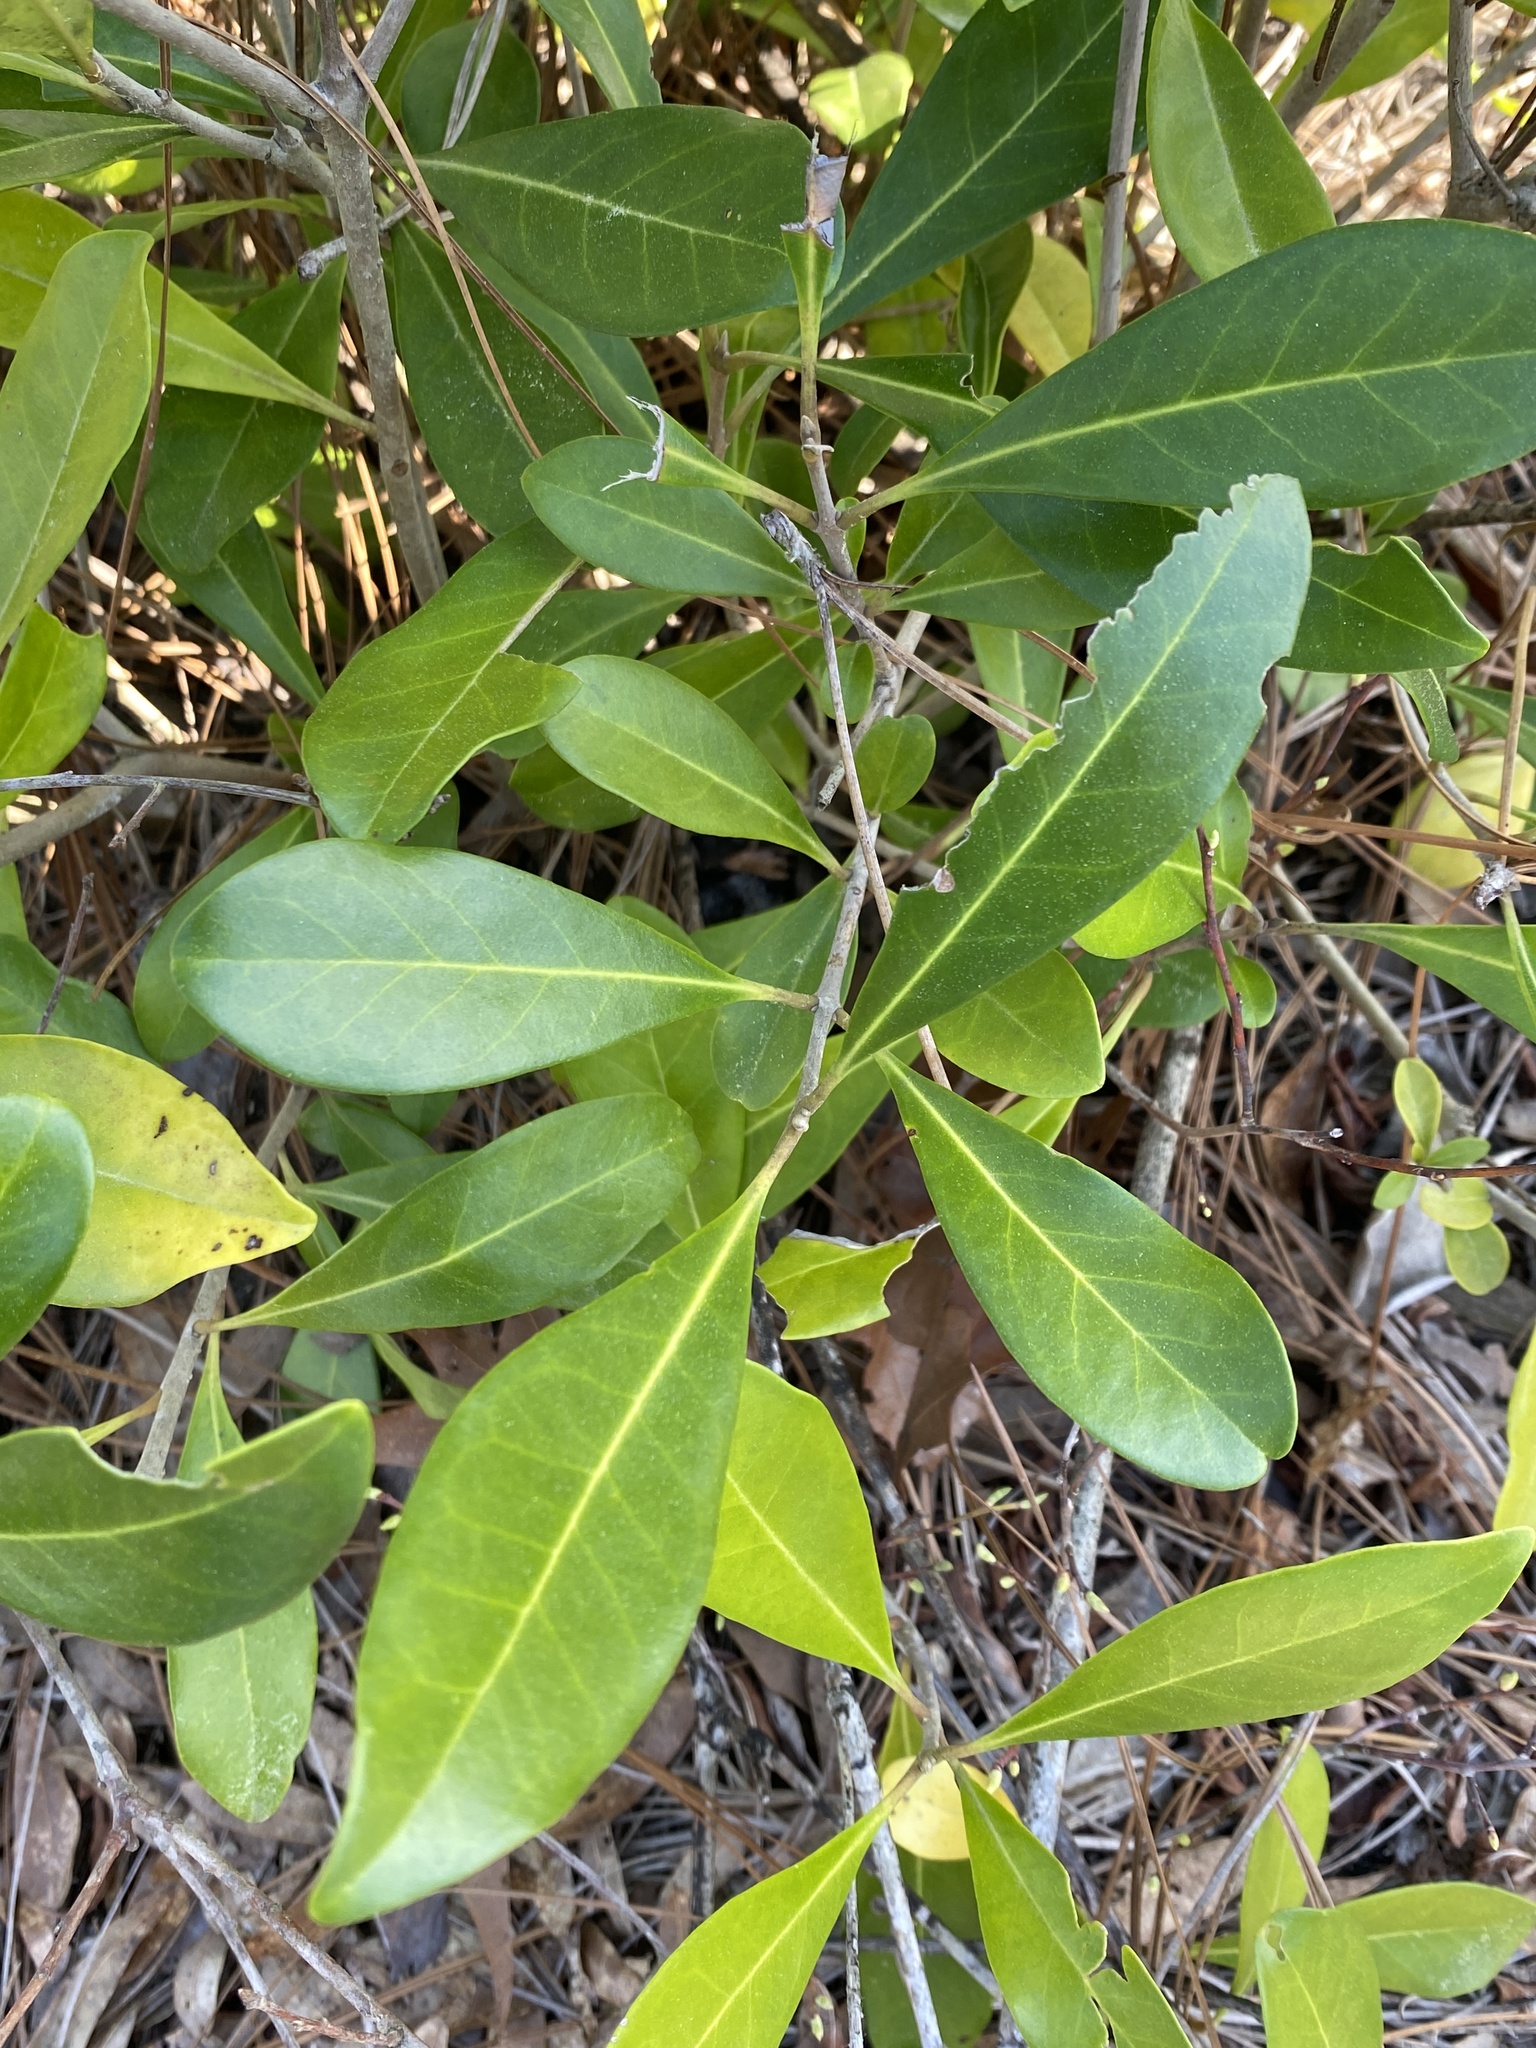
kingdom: Plantae
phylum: Tracheophyta
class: Magnoliopsida
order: Lamiales
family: Oleaceae
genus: Cartrema
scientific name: Cartrema americana
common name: Devilwood
